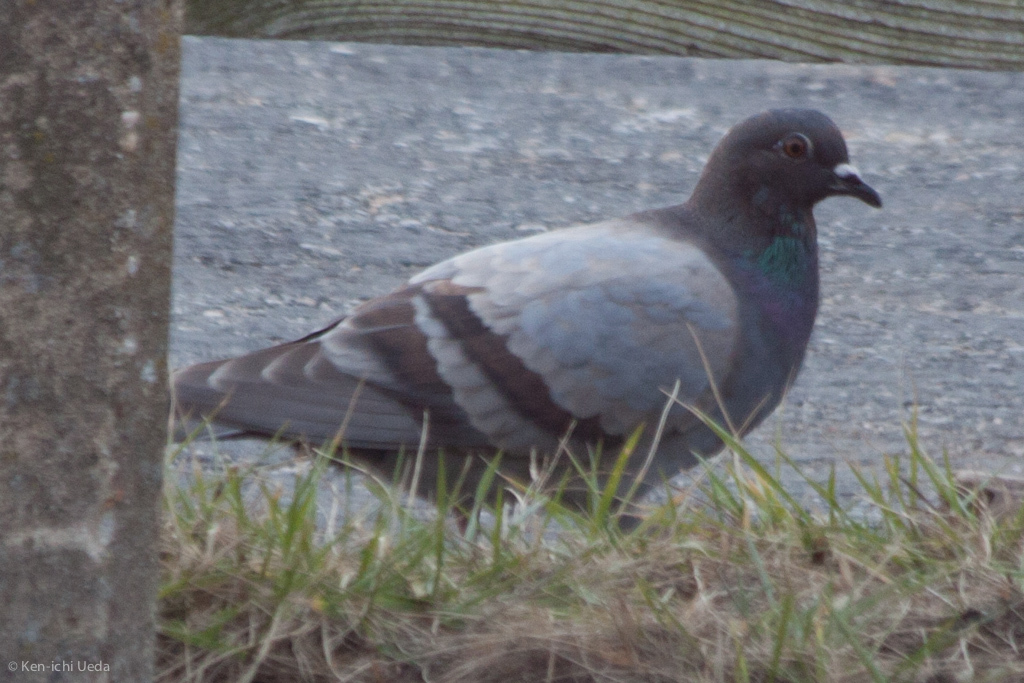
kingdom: Animalia
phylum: Chordata
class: Aves
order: Columbiformes
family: Columbidae
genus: Columba
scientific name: Columba livia
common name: Rock pigeon
